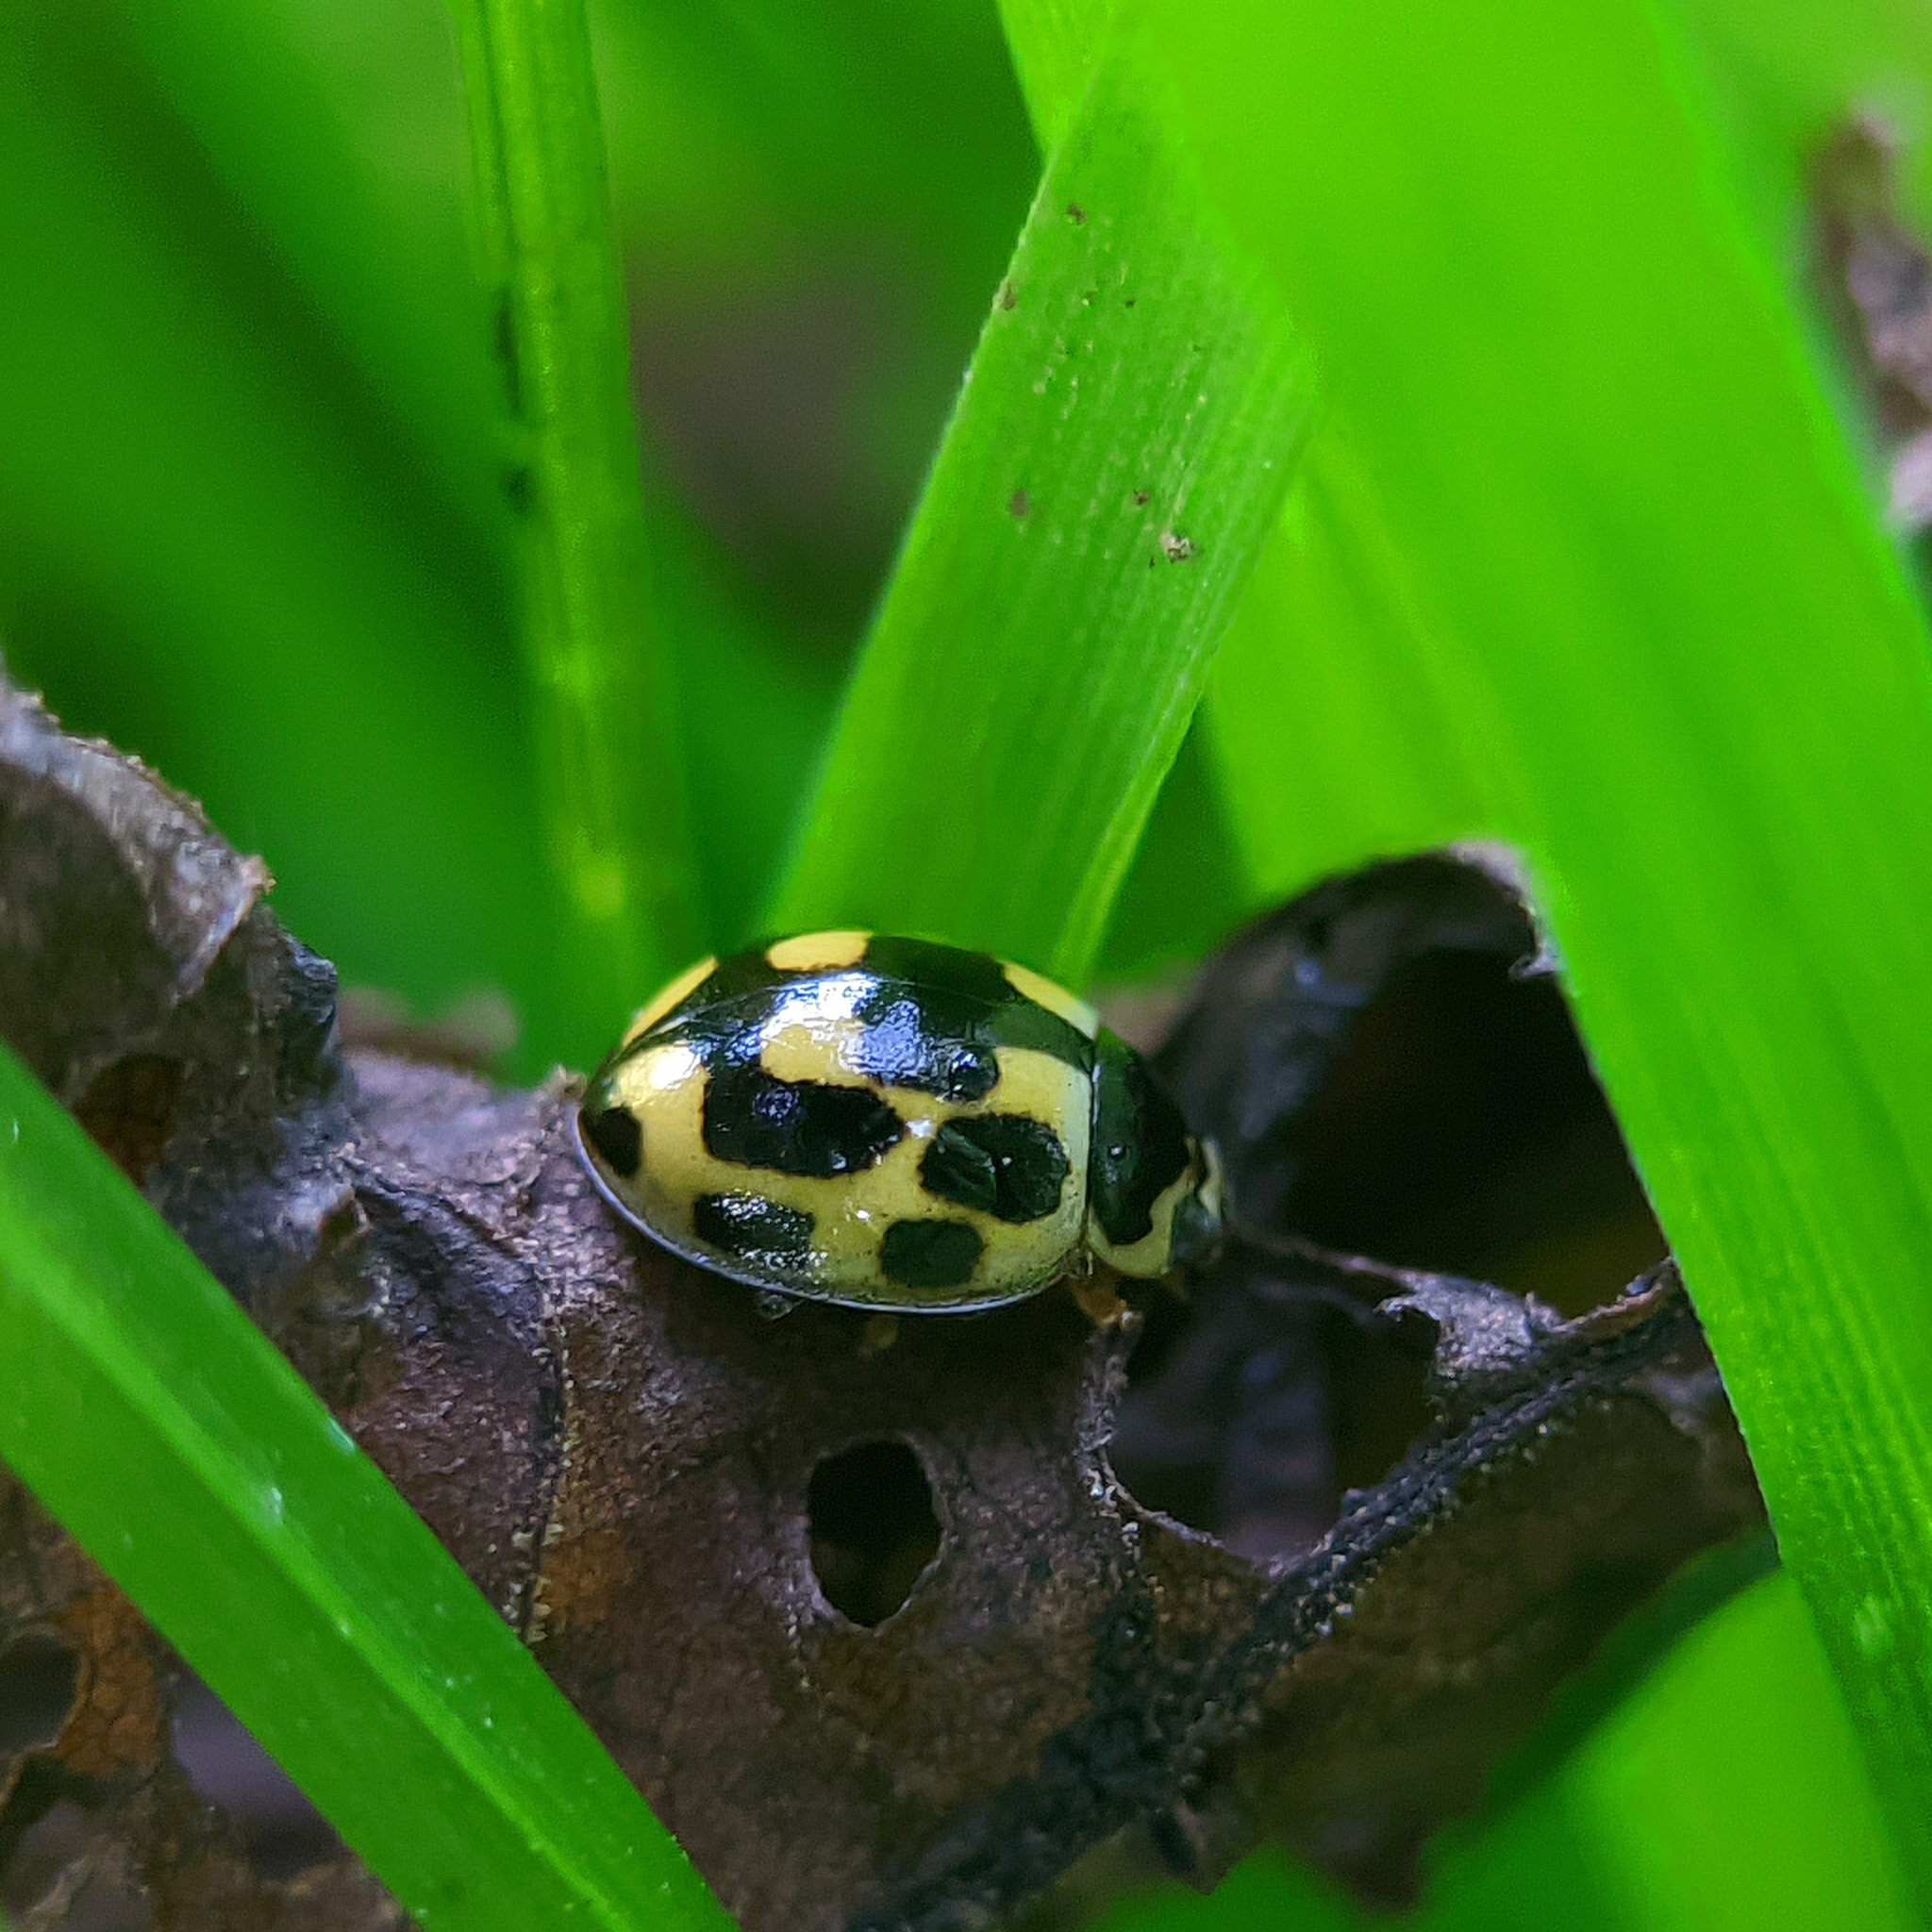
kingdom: Animalia
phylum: Arthropoda
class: Insecta
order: Coleoptera
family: Coccinellidae
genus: Propylaea
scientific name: Propylaea quatuordecimpunctata
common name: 14-spotted ladybird beetle
